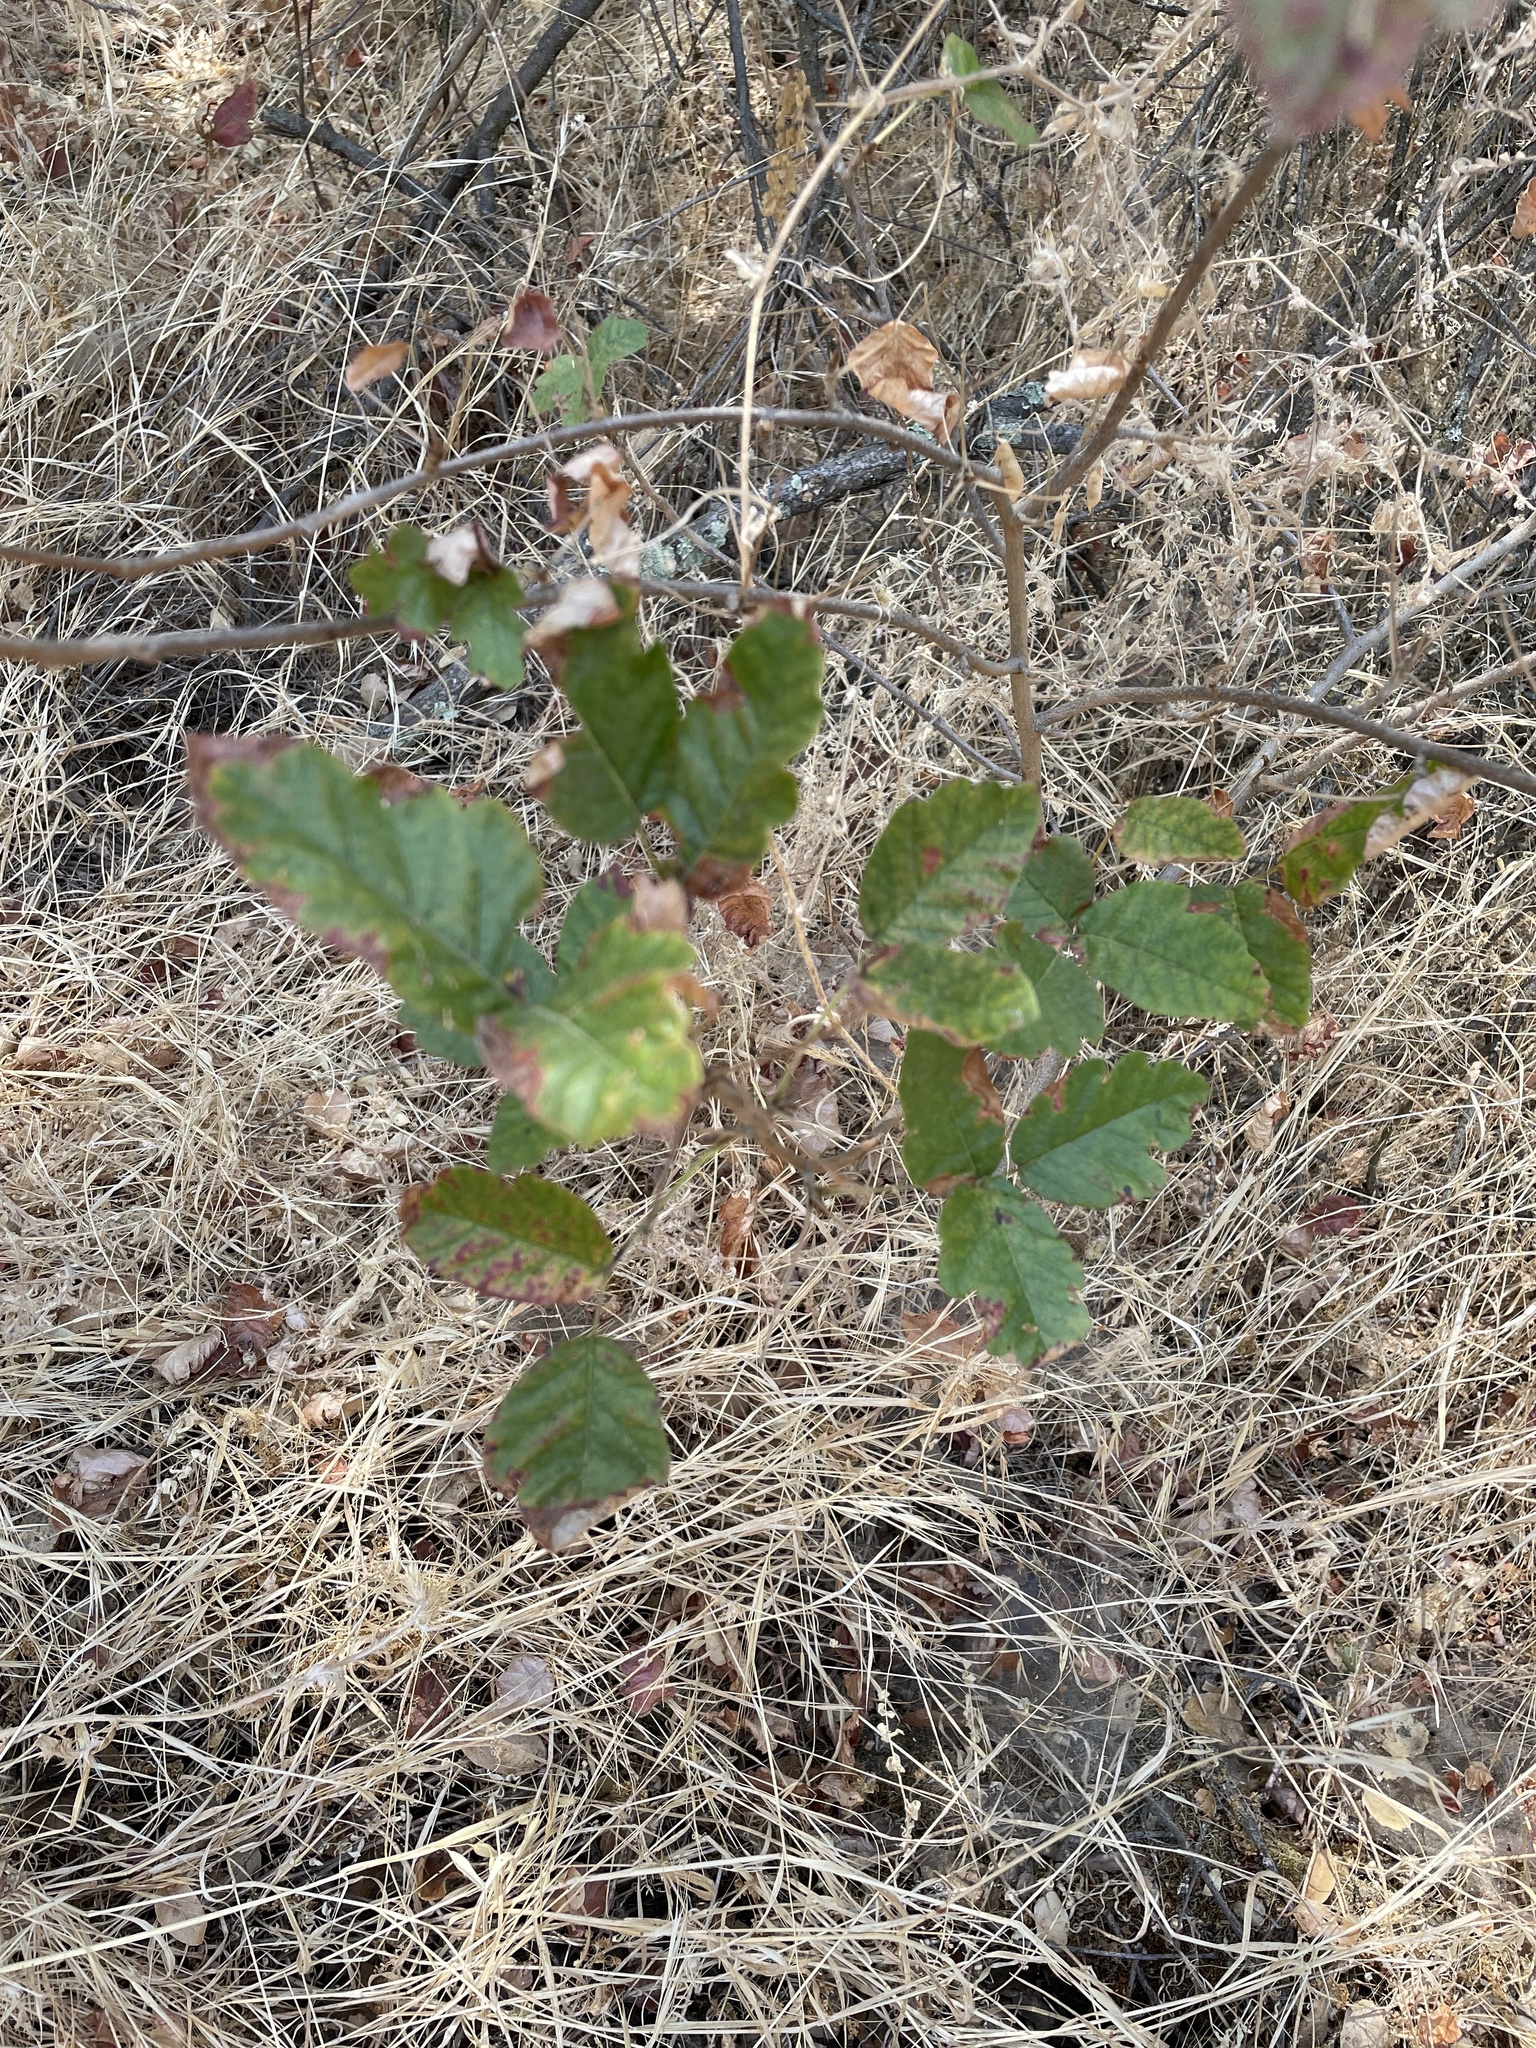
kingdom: Plantae
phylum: Tracheophyta
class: Magnoliopsida
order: Sapindales
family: Anacardiaceae
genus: Toxicodendron
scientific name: Toxicodendron diversilobum
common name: Pacific poison-oak
